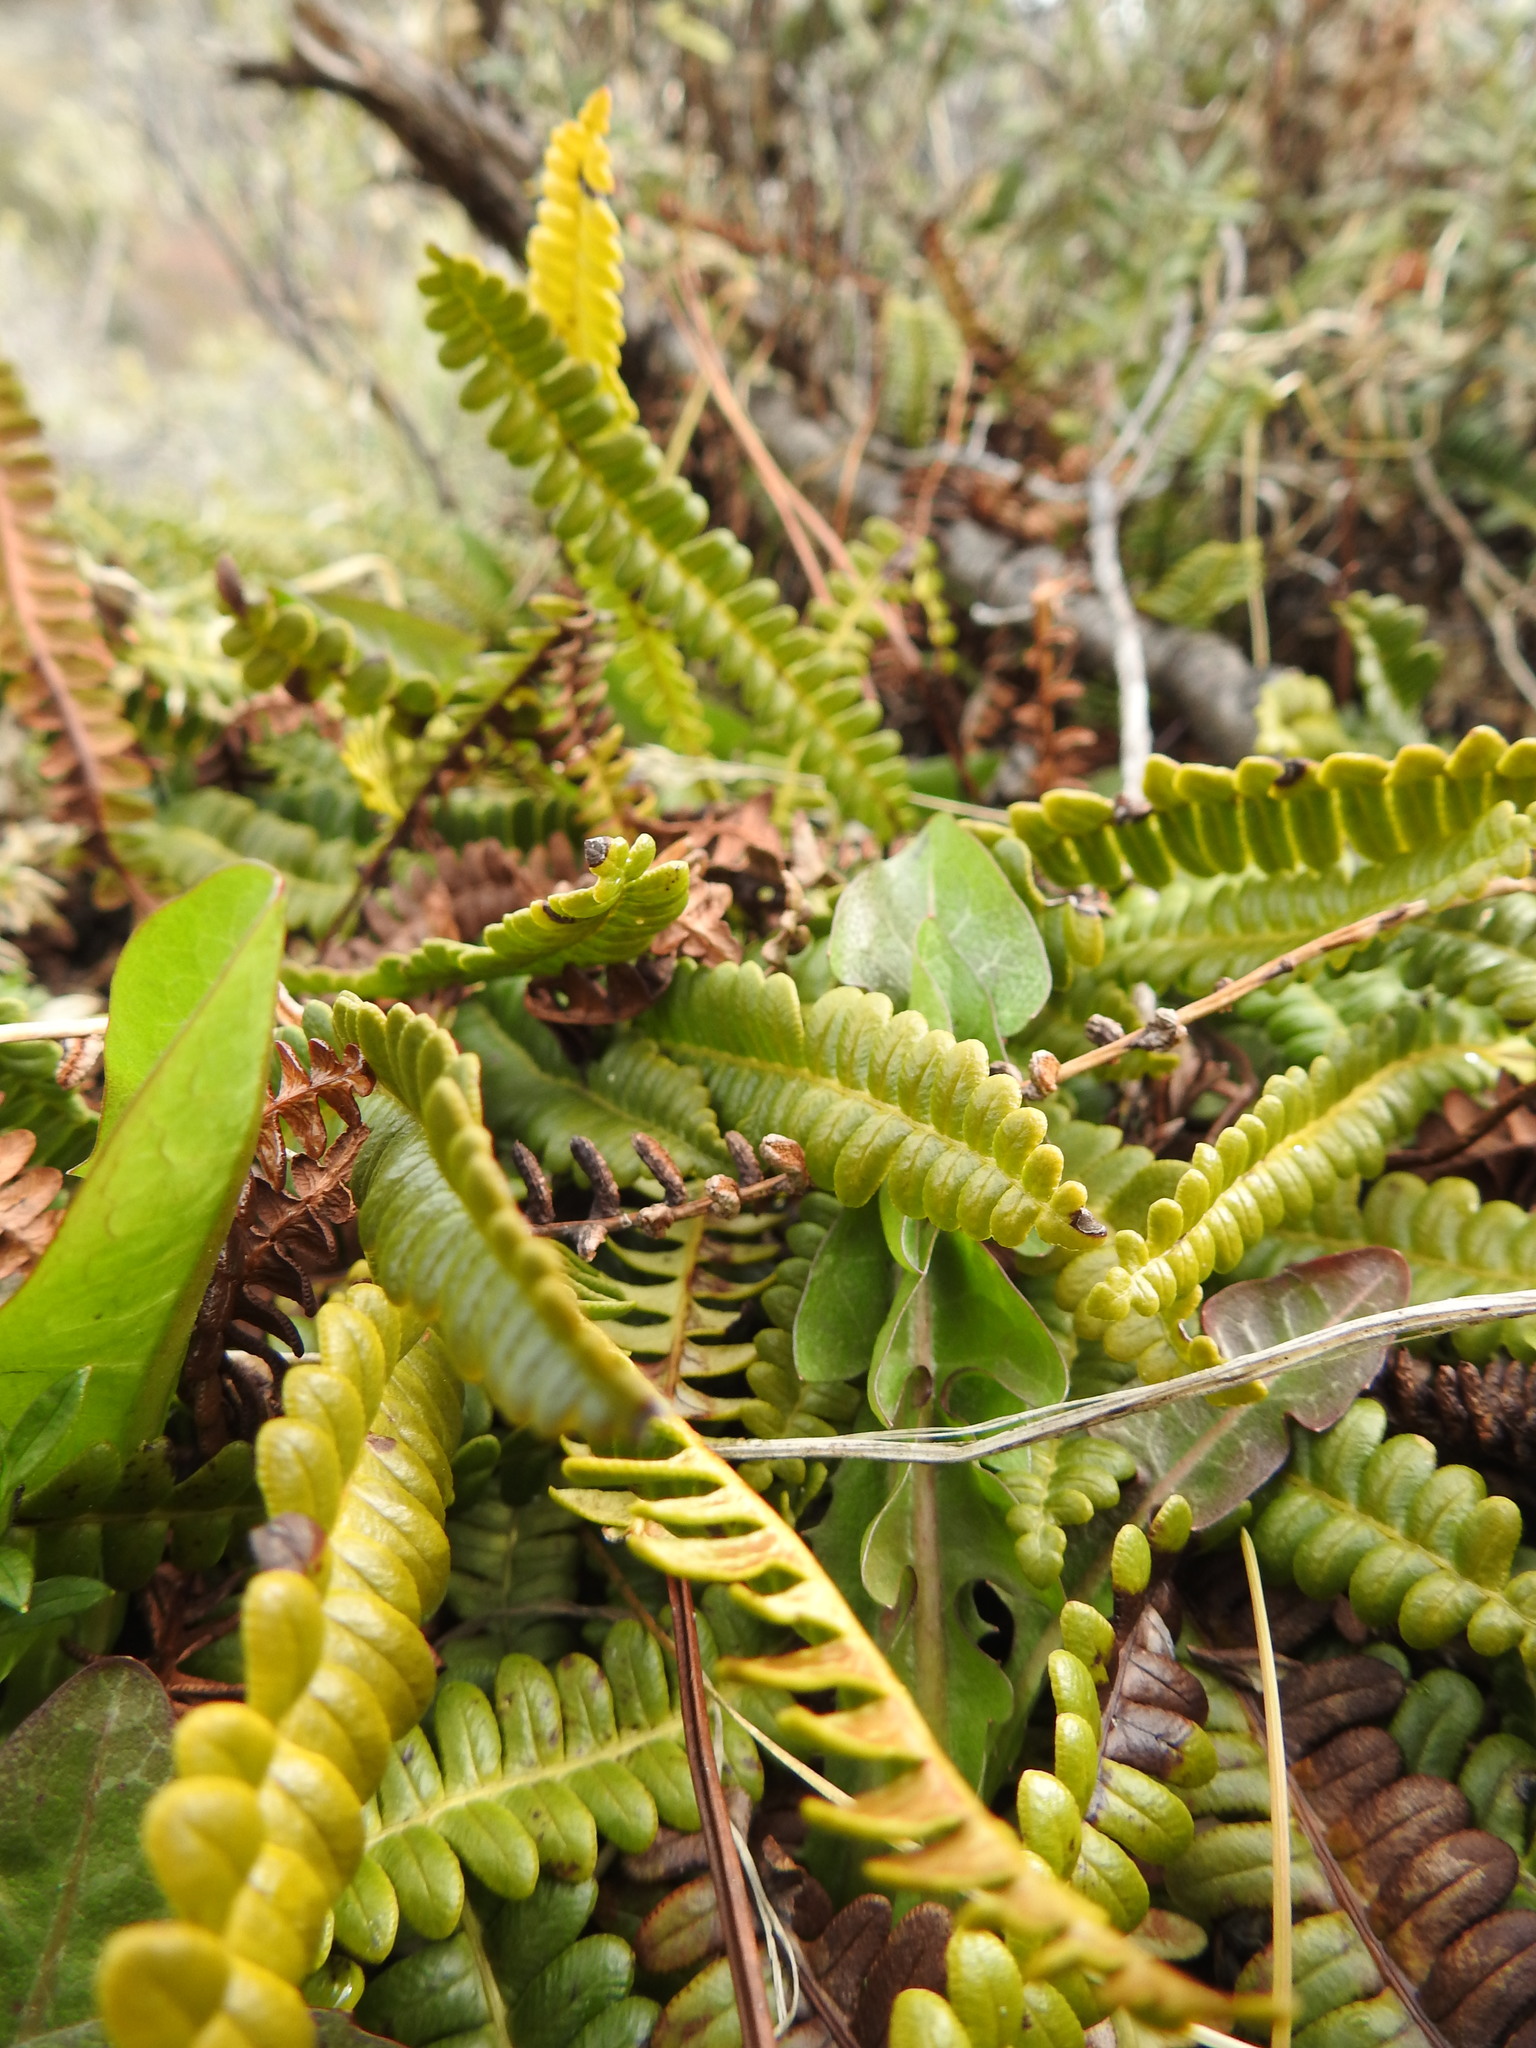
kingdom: Plantae
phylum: Tracheophyta
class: Polypodiopsida
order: Polypodiales
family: Blechnaceae
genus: Austroblechnum
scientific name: Austroblechnum penna-marina
